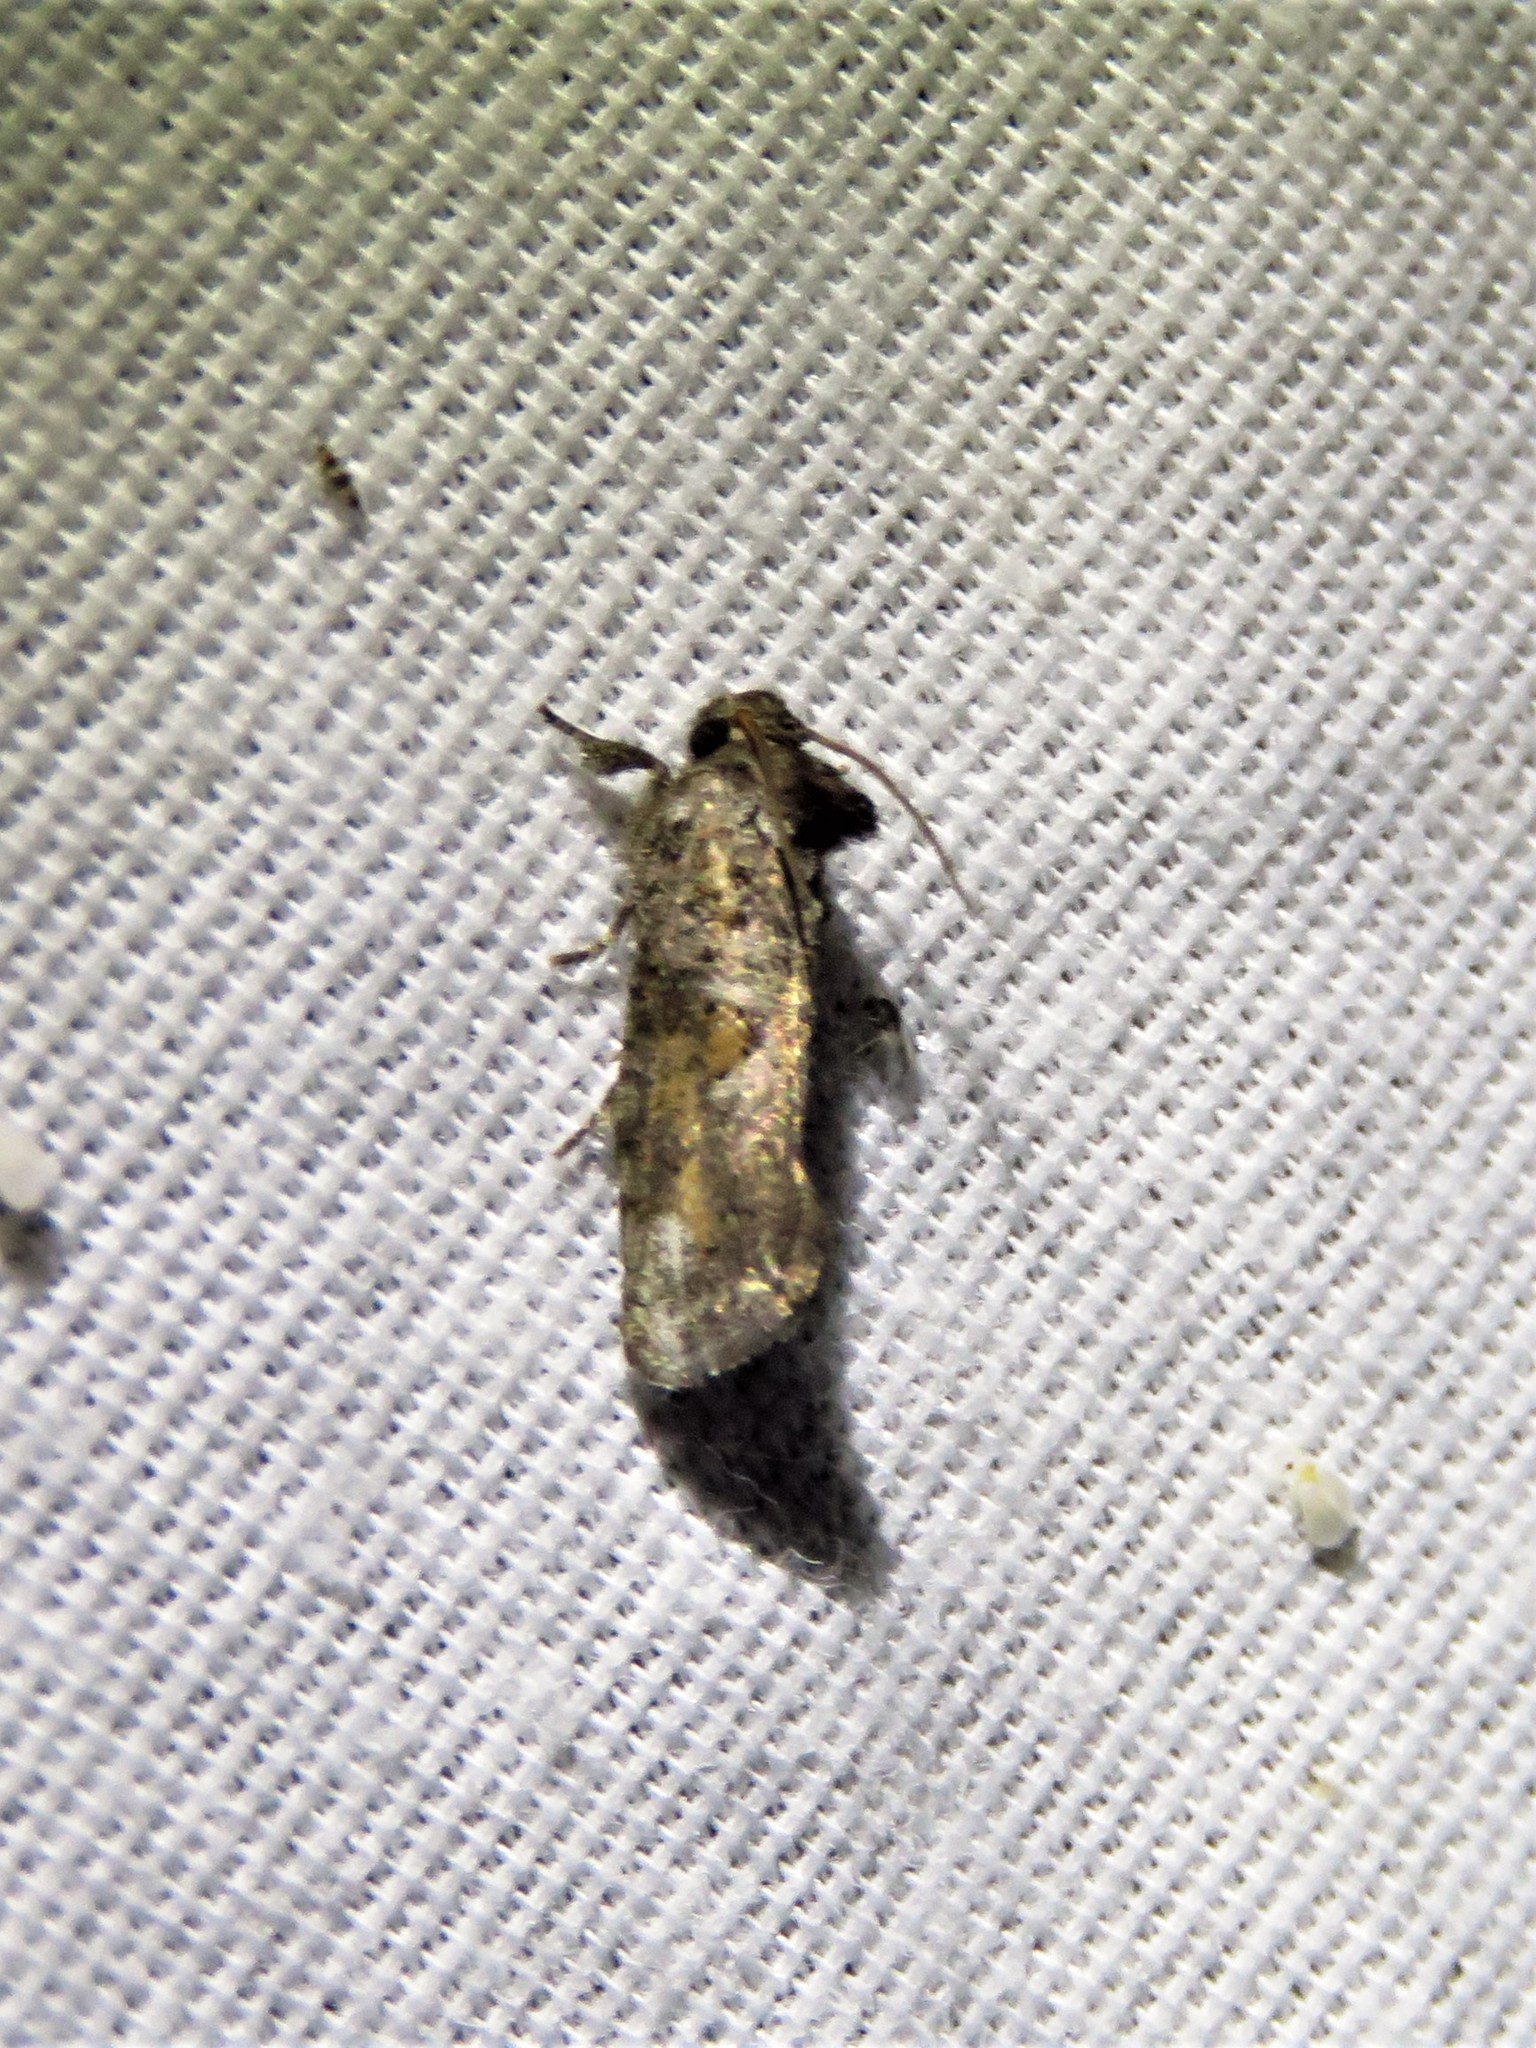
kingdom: Animalia
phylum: Arthropoda
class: Insecta
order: Lepidoptera
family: Tineidae
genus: Acrolophus
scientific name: Acrolophus popeanella
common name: Clemens' grass tubeworm moth
